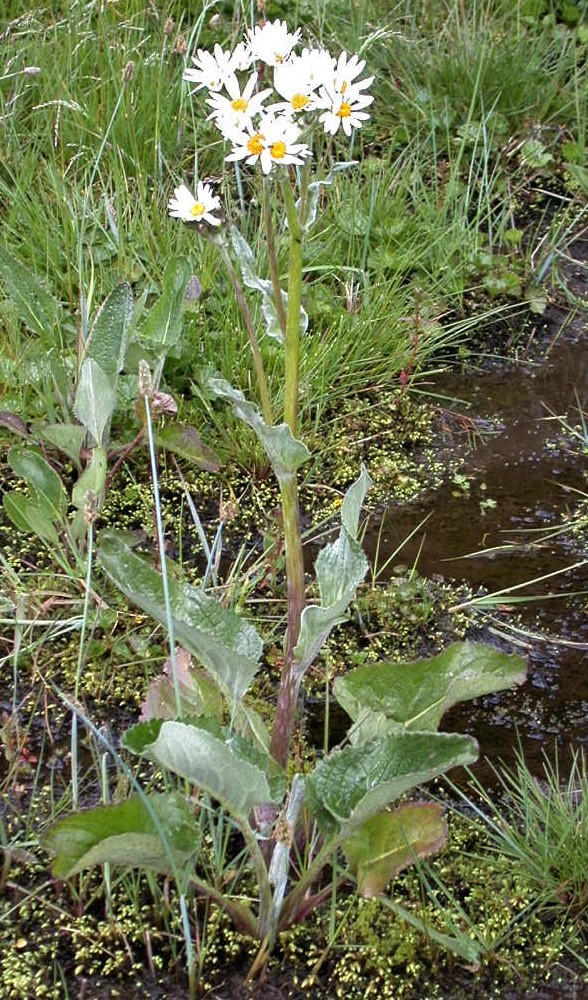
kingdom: Plantae
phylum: Tracheophyta
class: Magnoliopsida
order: Asterales
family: Asteraceae
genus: Senecio
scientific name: Senecio smithii
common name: Magellan ragwort
